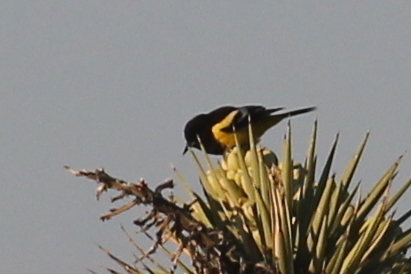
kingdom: Animalia
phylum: Chordata
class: Aves
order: Passeriformes
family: Icteridae
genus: Icterus
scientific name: Icterus parisorum
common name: Scott's oriole
